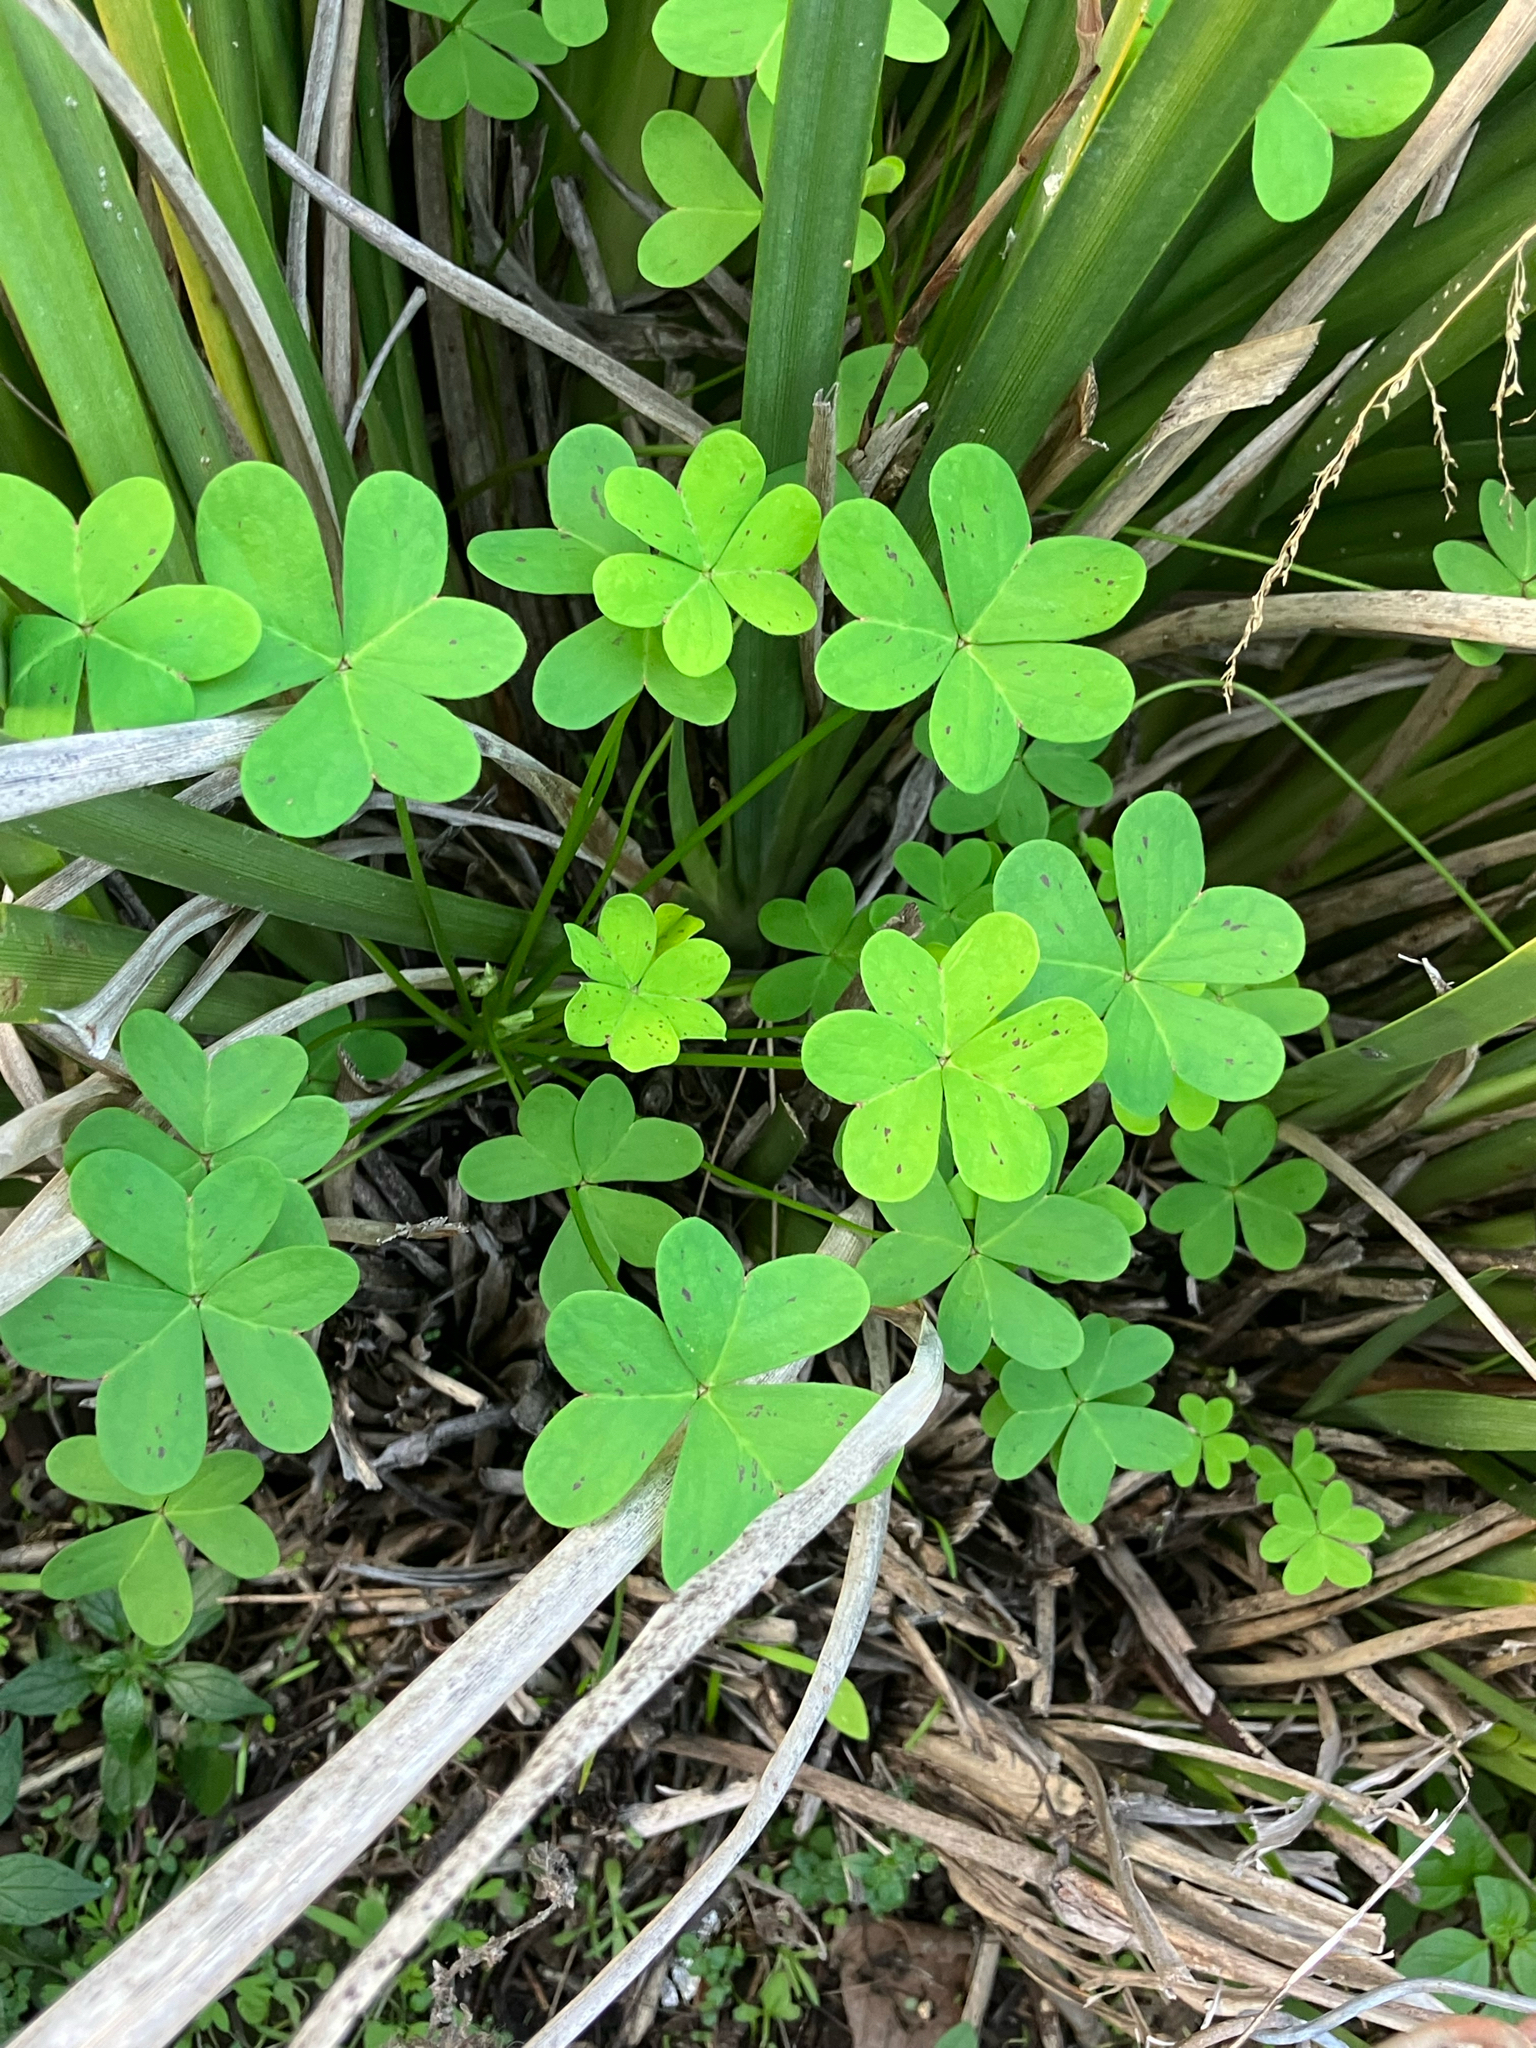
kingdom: Plantae
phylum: Tracheophyta
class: Magnoliopsida
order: Oxalidales
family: Oxalidaceae
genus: Oxalis
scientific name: Oxalis pes-caprae
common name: Bermuda-buttercup
